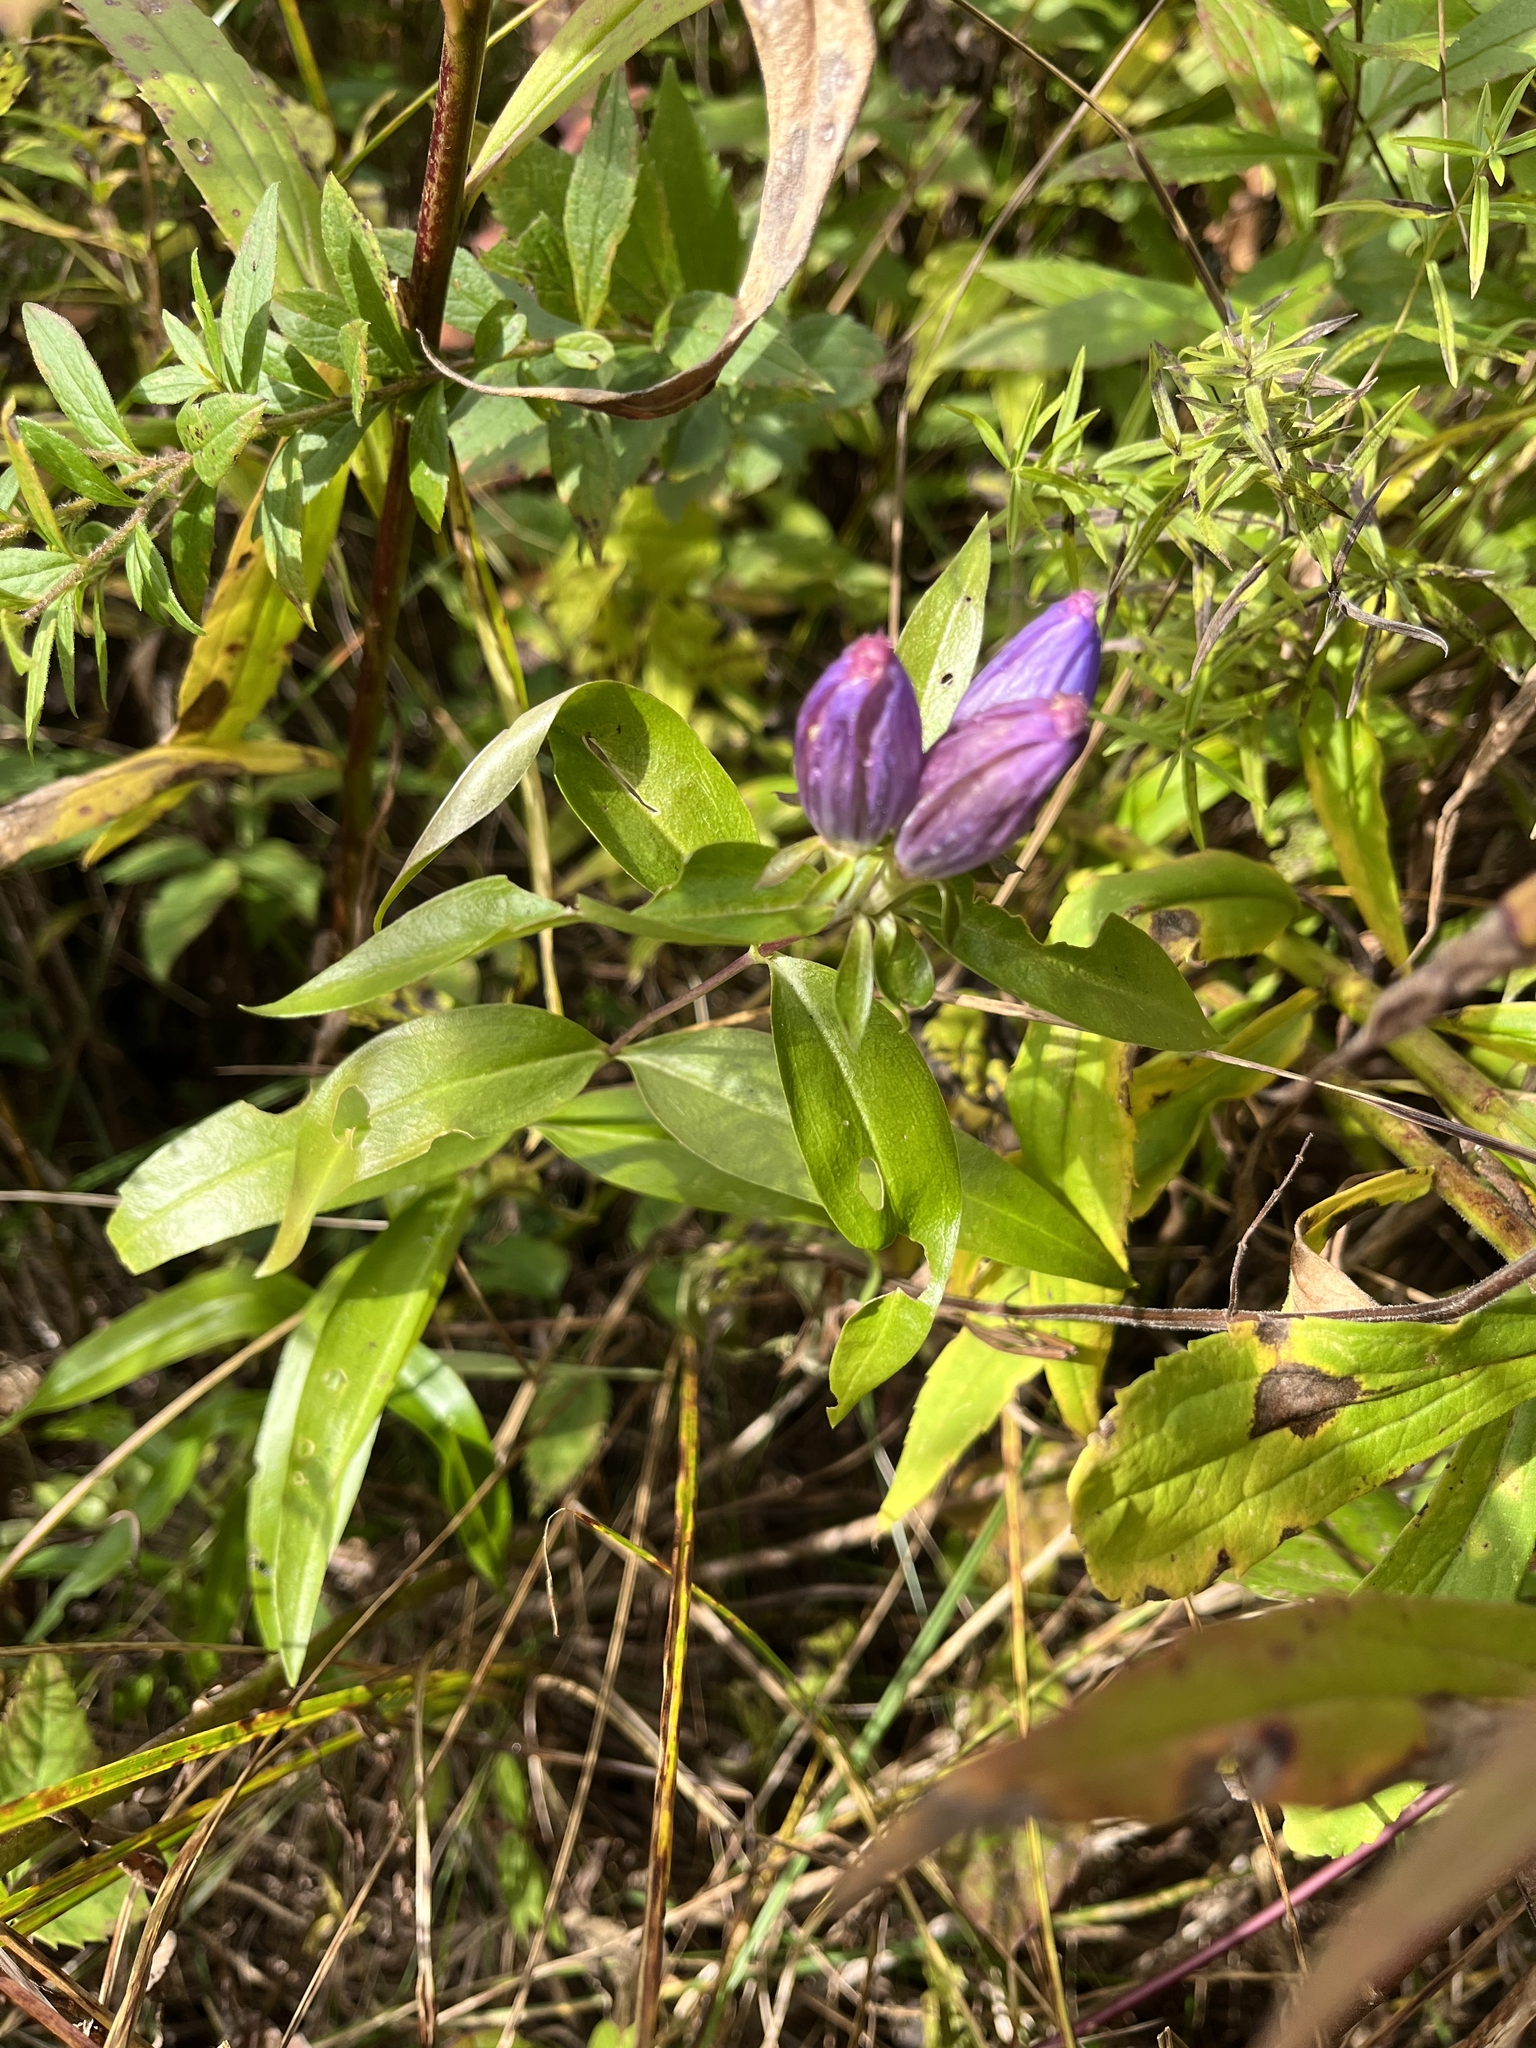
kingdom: Plantae
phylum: Tracheophyta
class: Magnoliopsida
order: Gentianales
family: Gentianaceae
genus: Gentiana
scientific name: Gentiana andrewsii
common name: Bottle gentian
